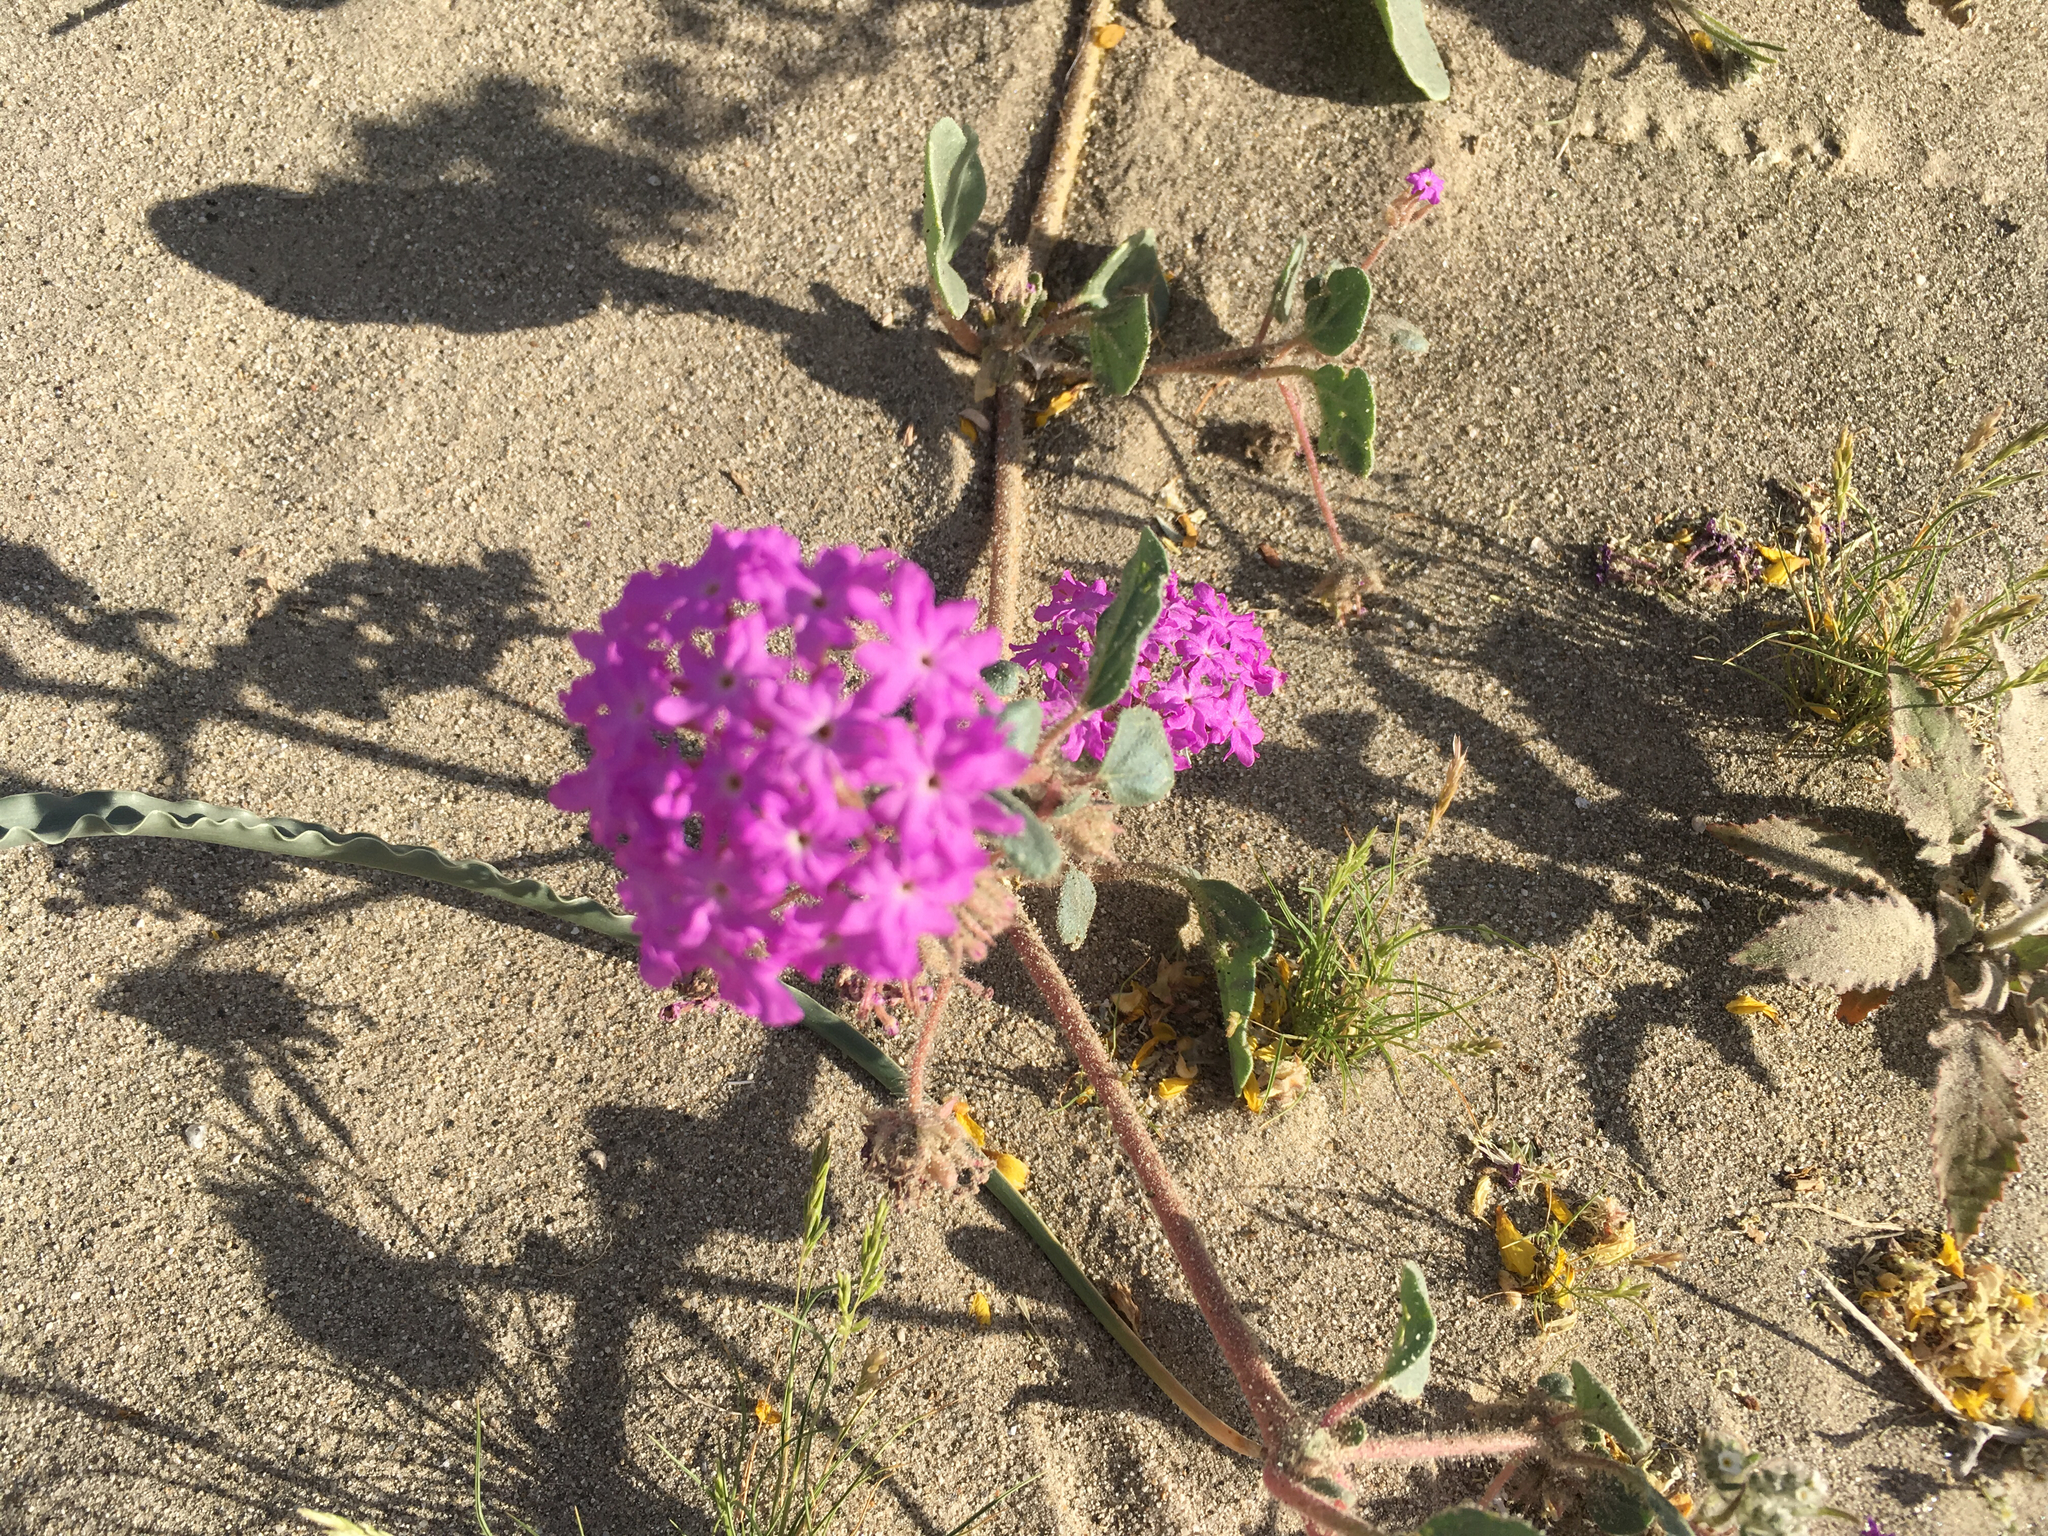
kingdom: Plantae
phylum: Tracheophyta
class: Magnoliopsida
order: Caryophyllales
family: Nyctaginaceae
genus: Abronia
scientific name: Abronia villosa
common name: Desert sand-verbena
